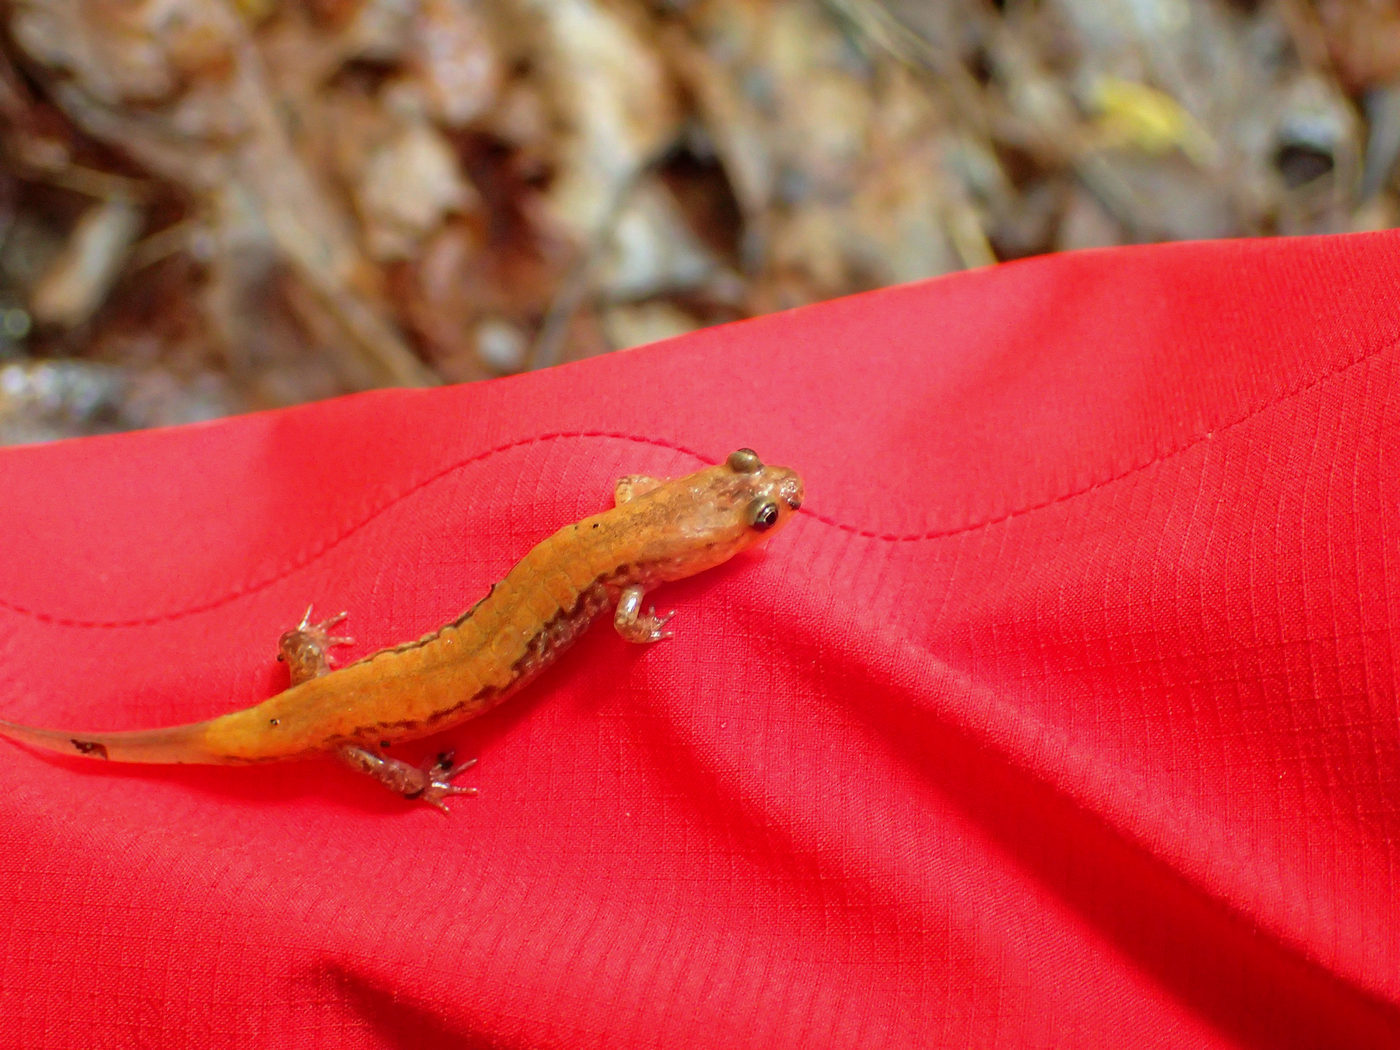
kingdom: Animalia
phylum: Chordata
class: Amphibia
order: Caudata
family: Plethodontidae
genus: Desmognathus
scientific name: Desmognathus carolinensis
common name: Carolina mountain dusky salamander
